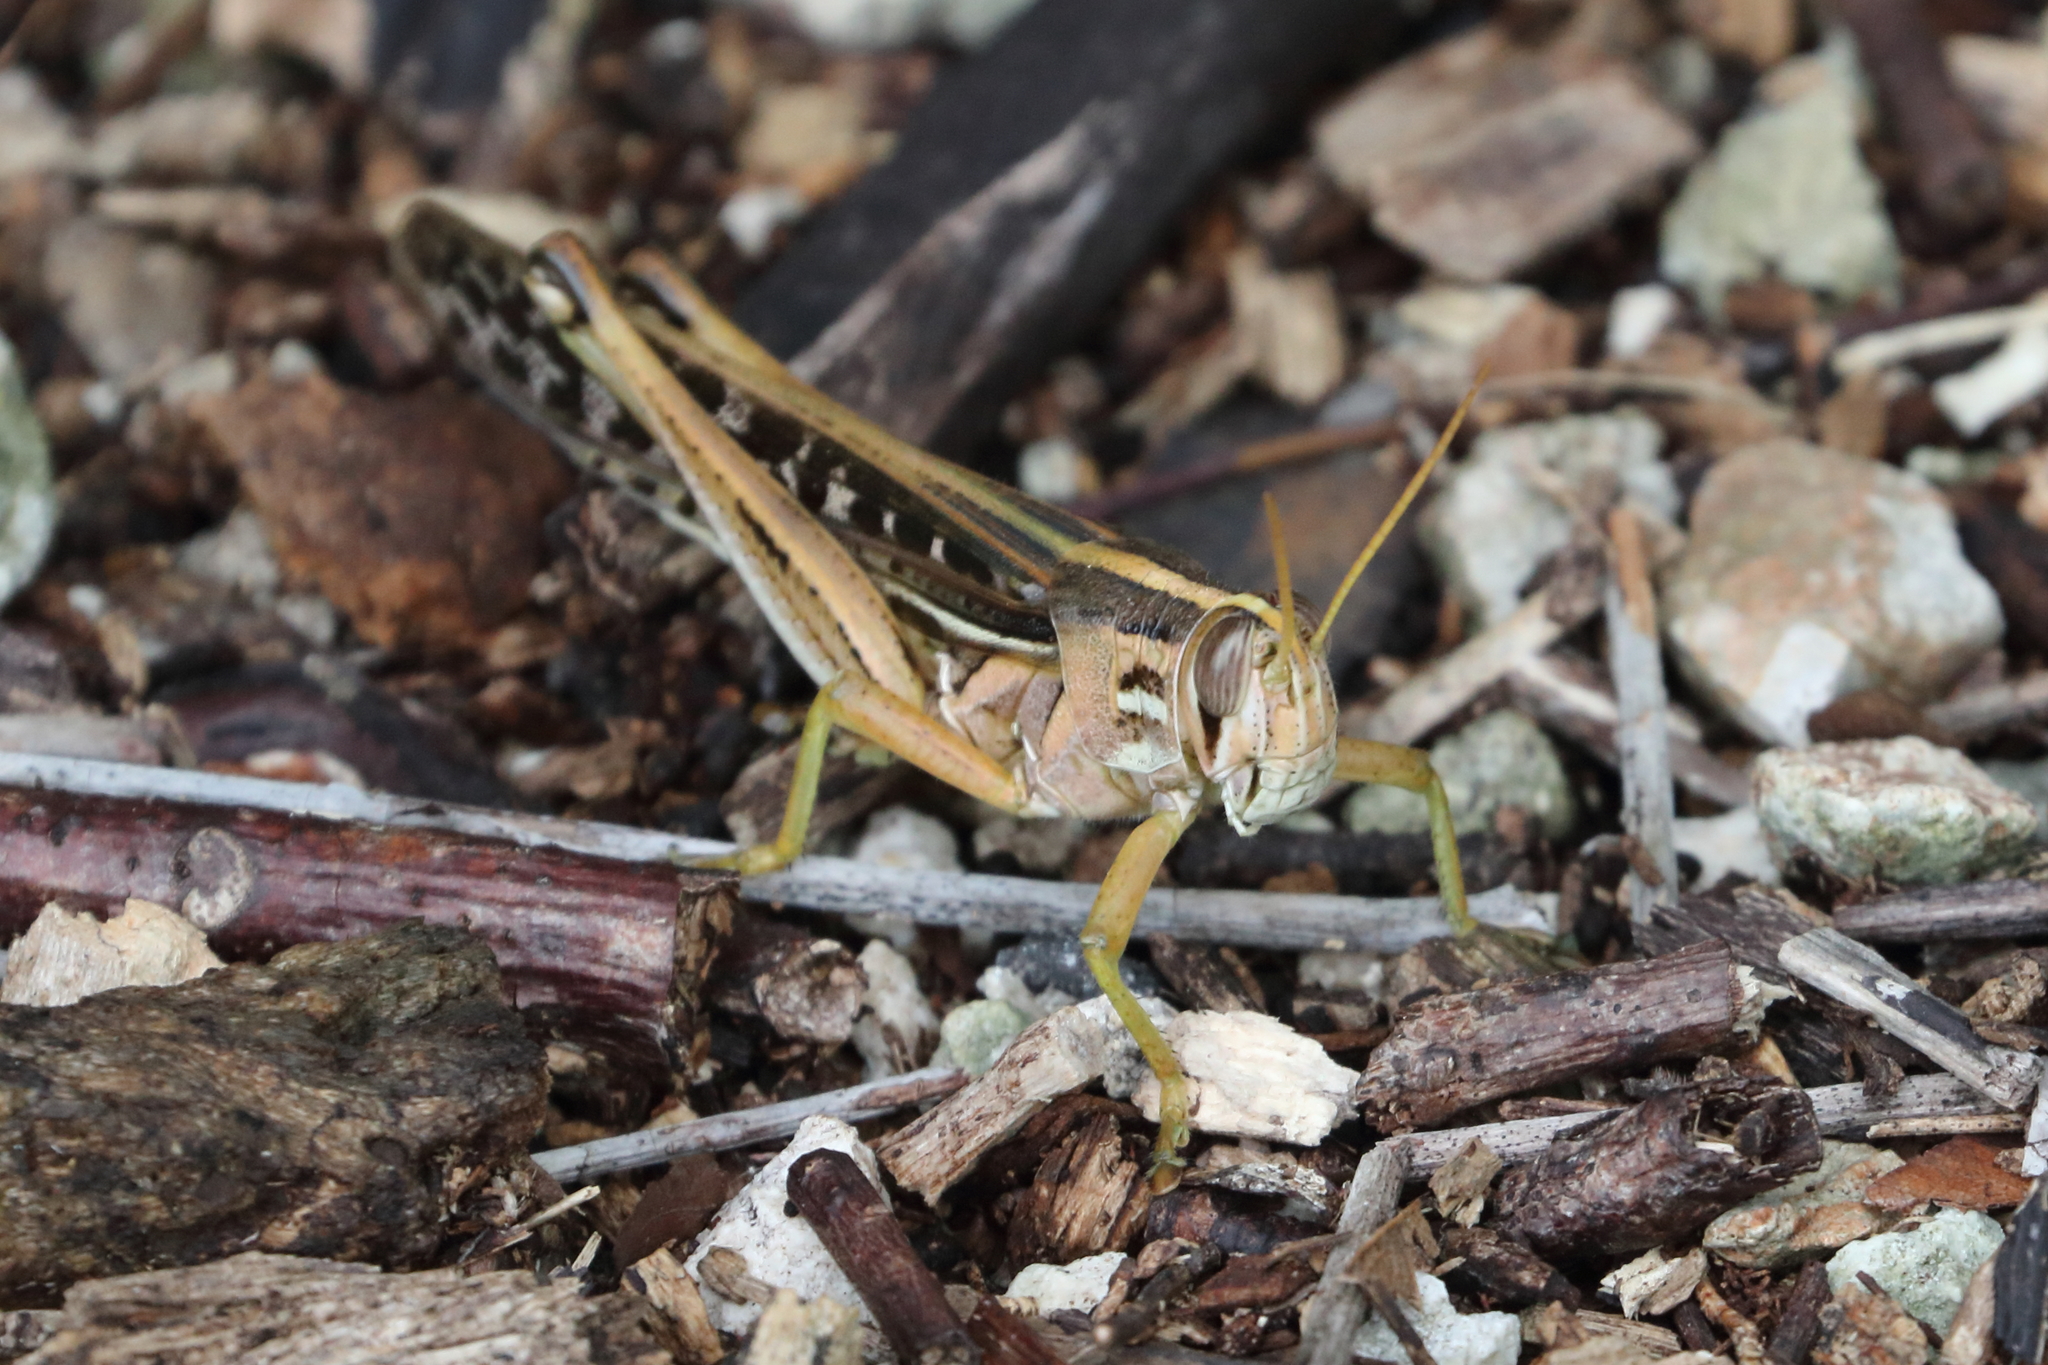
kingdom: Animalia
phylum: Arthropoda
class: Insecta
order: Orthoptera
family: Acrididae
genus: Schistocerca
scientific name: Schistocerca americana
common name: American bird locust
